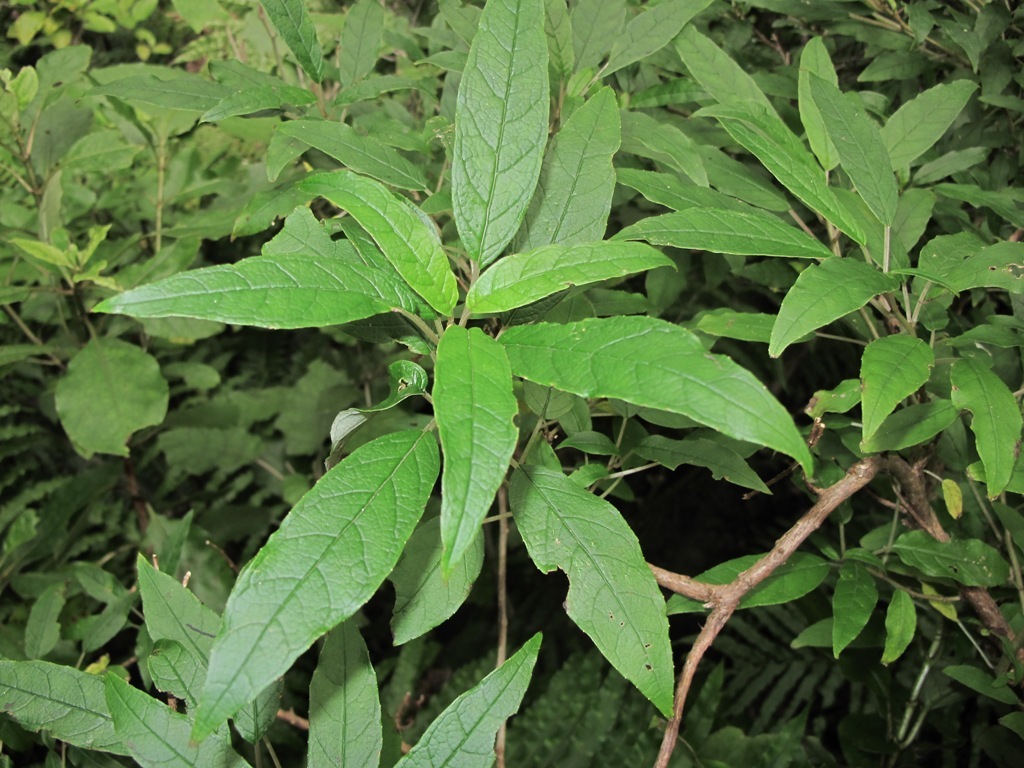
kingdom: Plantae
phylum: Tracheophyta
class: Magnoliopsida
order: Myrtales
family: Onagraceae
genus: Fuchsia
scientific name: Fuchsia excorticata
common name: Tree fuchsia
